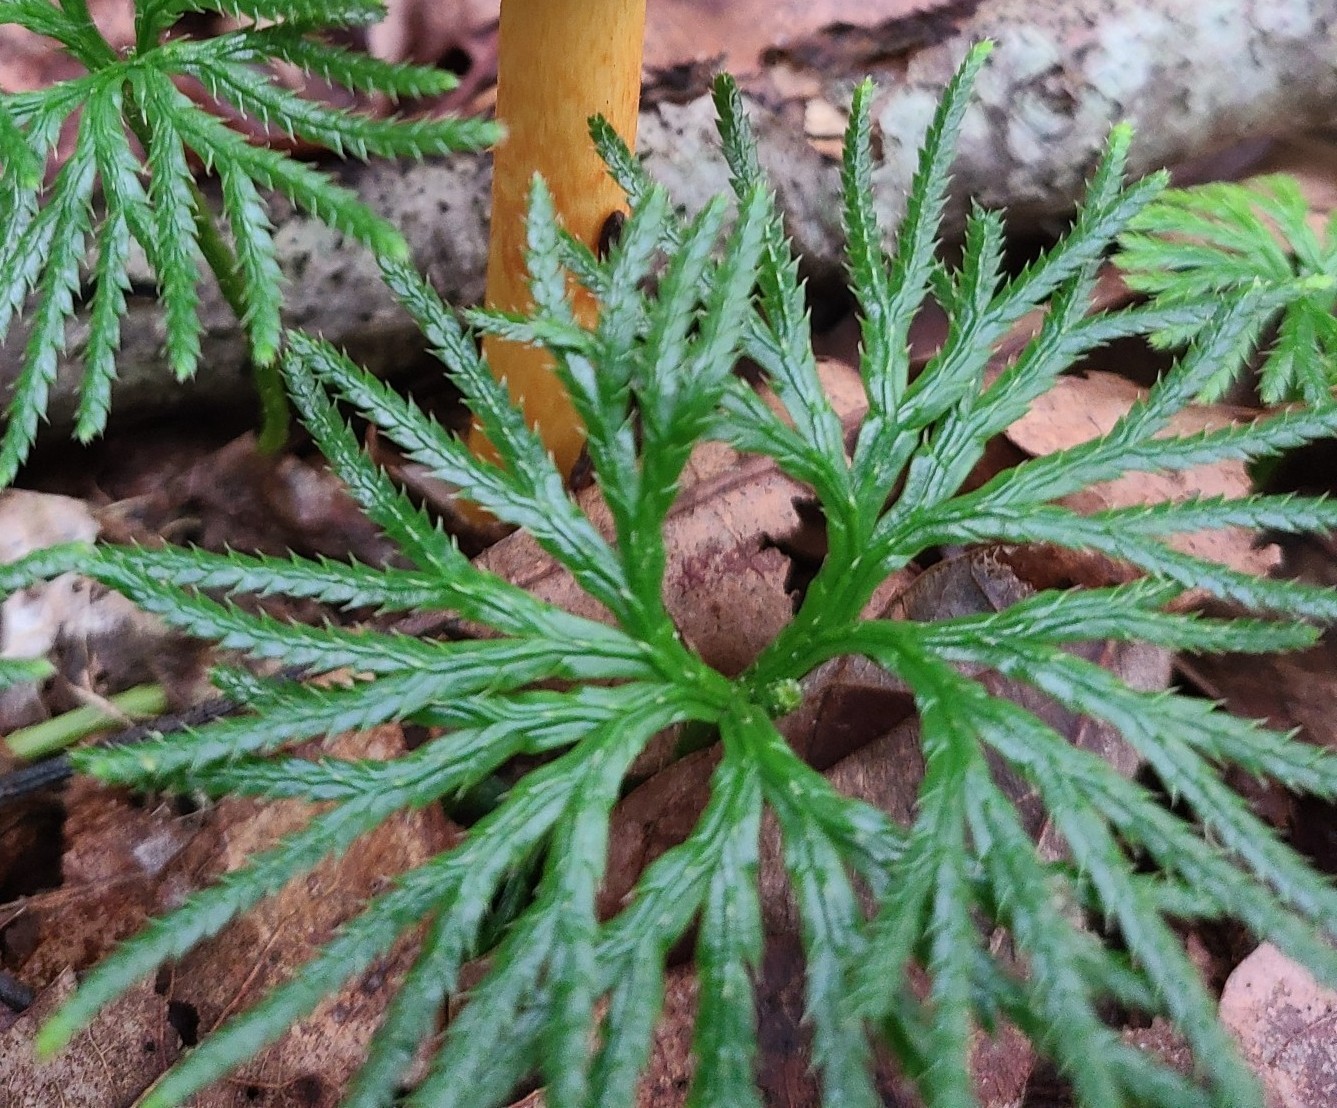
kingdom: Plantae
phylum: Tracheophyta
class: Lycopodiopsida
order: Lycopodiales
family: Lycopodiaceae
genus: Diphasiastrum
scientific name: Diphasiastrum digitatum
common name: Southern running-pine
